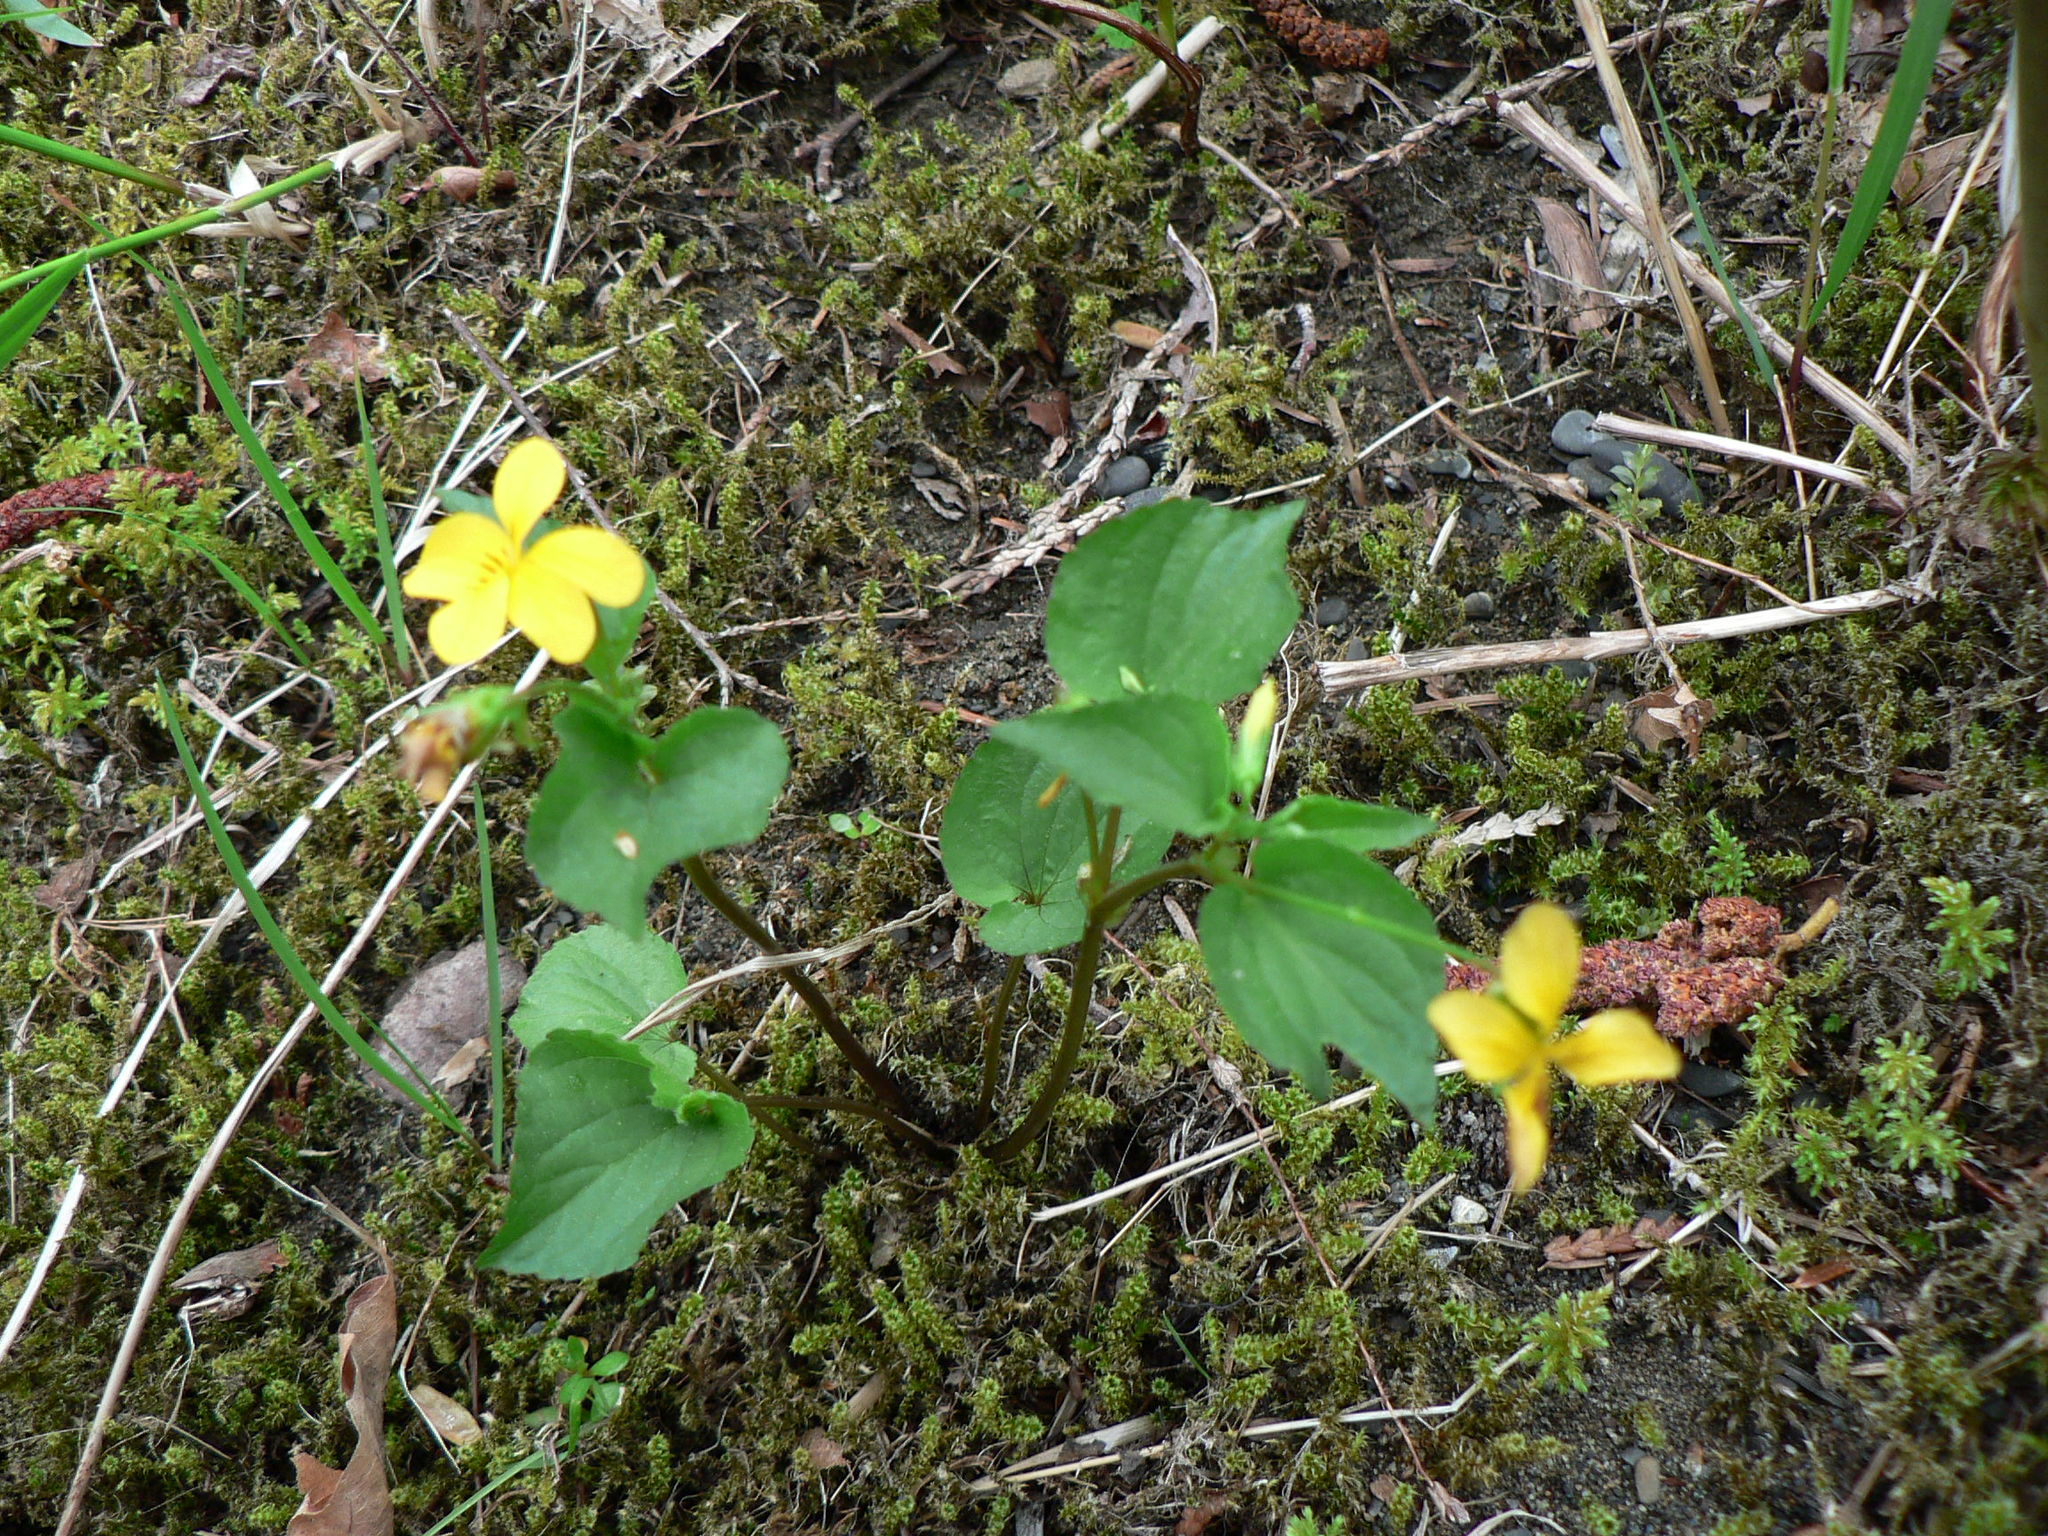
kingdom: Plantae
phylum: Tracheophyta
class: Magnoliopsida
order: Malpighiales
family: Violaceae
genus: Viola
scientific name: Viola glabella
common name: Stream violet
